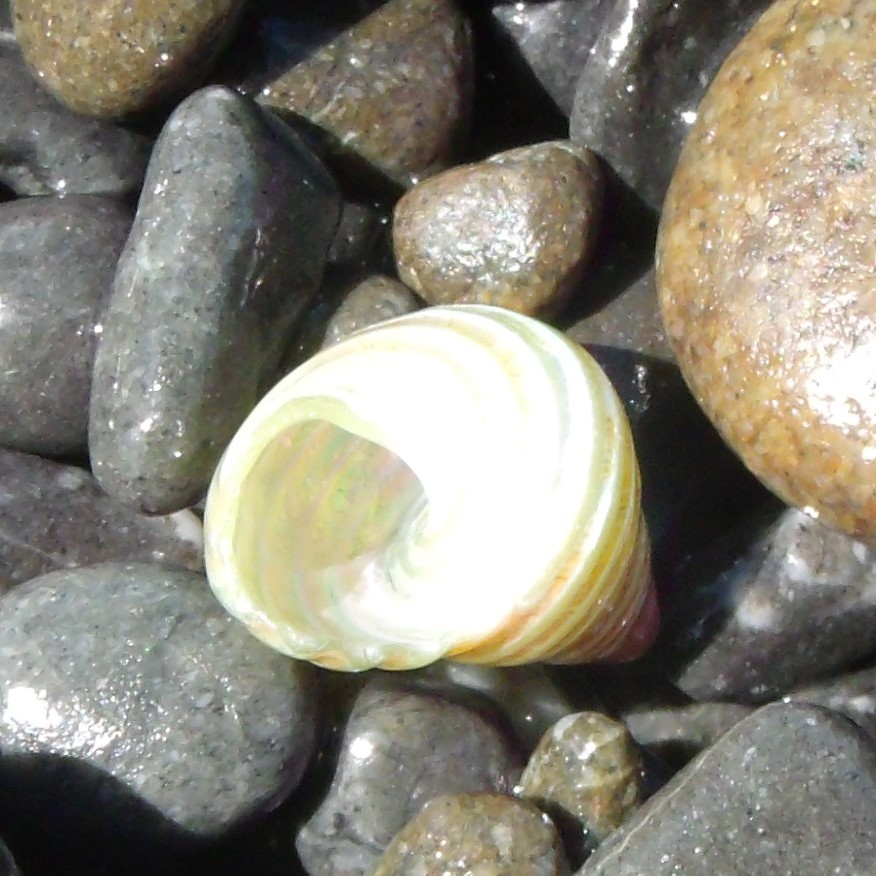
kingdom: Animalia
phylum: Mollusca
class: Gastropoda
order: Trochida
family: Trochidae
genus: Micrelenchus
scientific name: Micrelenchus purpureus
